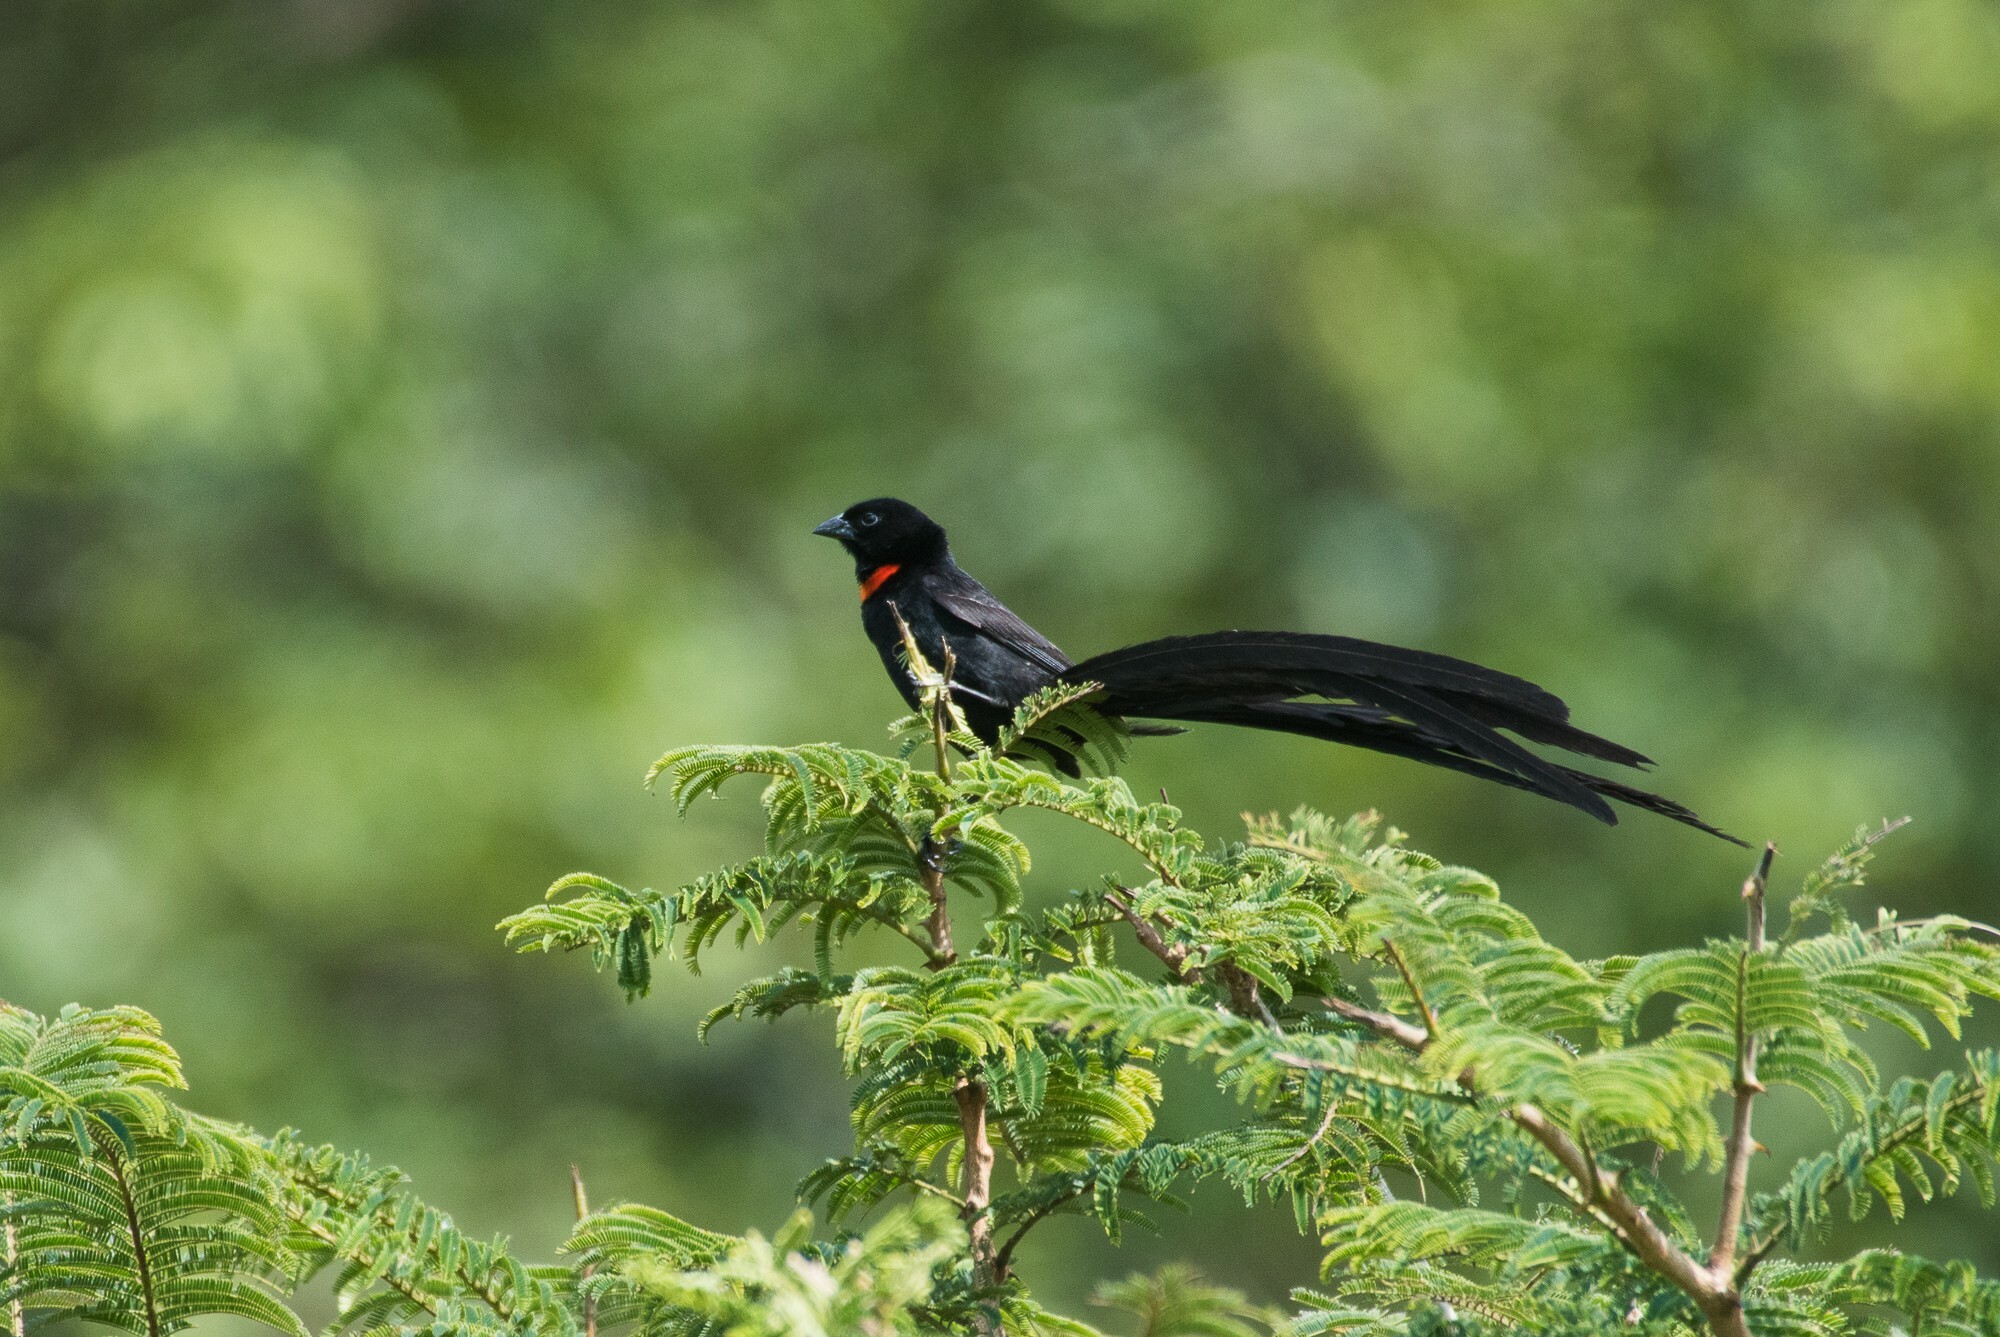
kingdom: Animalia
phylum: Chordata
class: Aves
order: Passeriformes
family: Ploceidae
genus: Euplectes
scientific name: Euplectes ardens
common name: Red-collared widowbird
